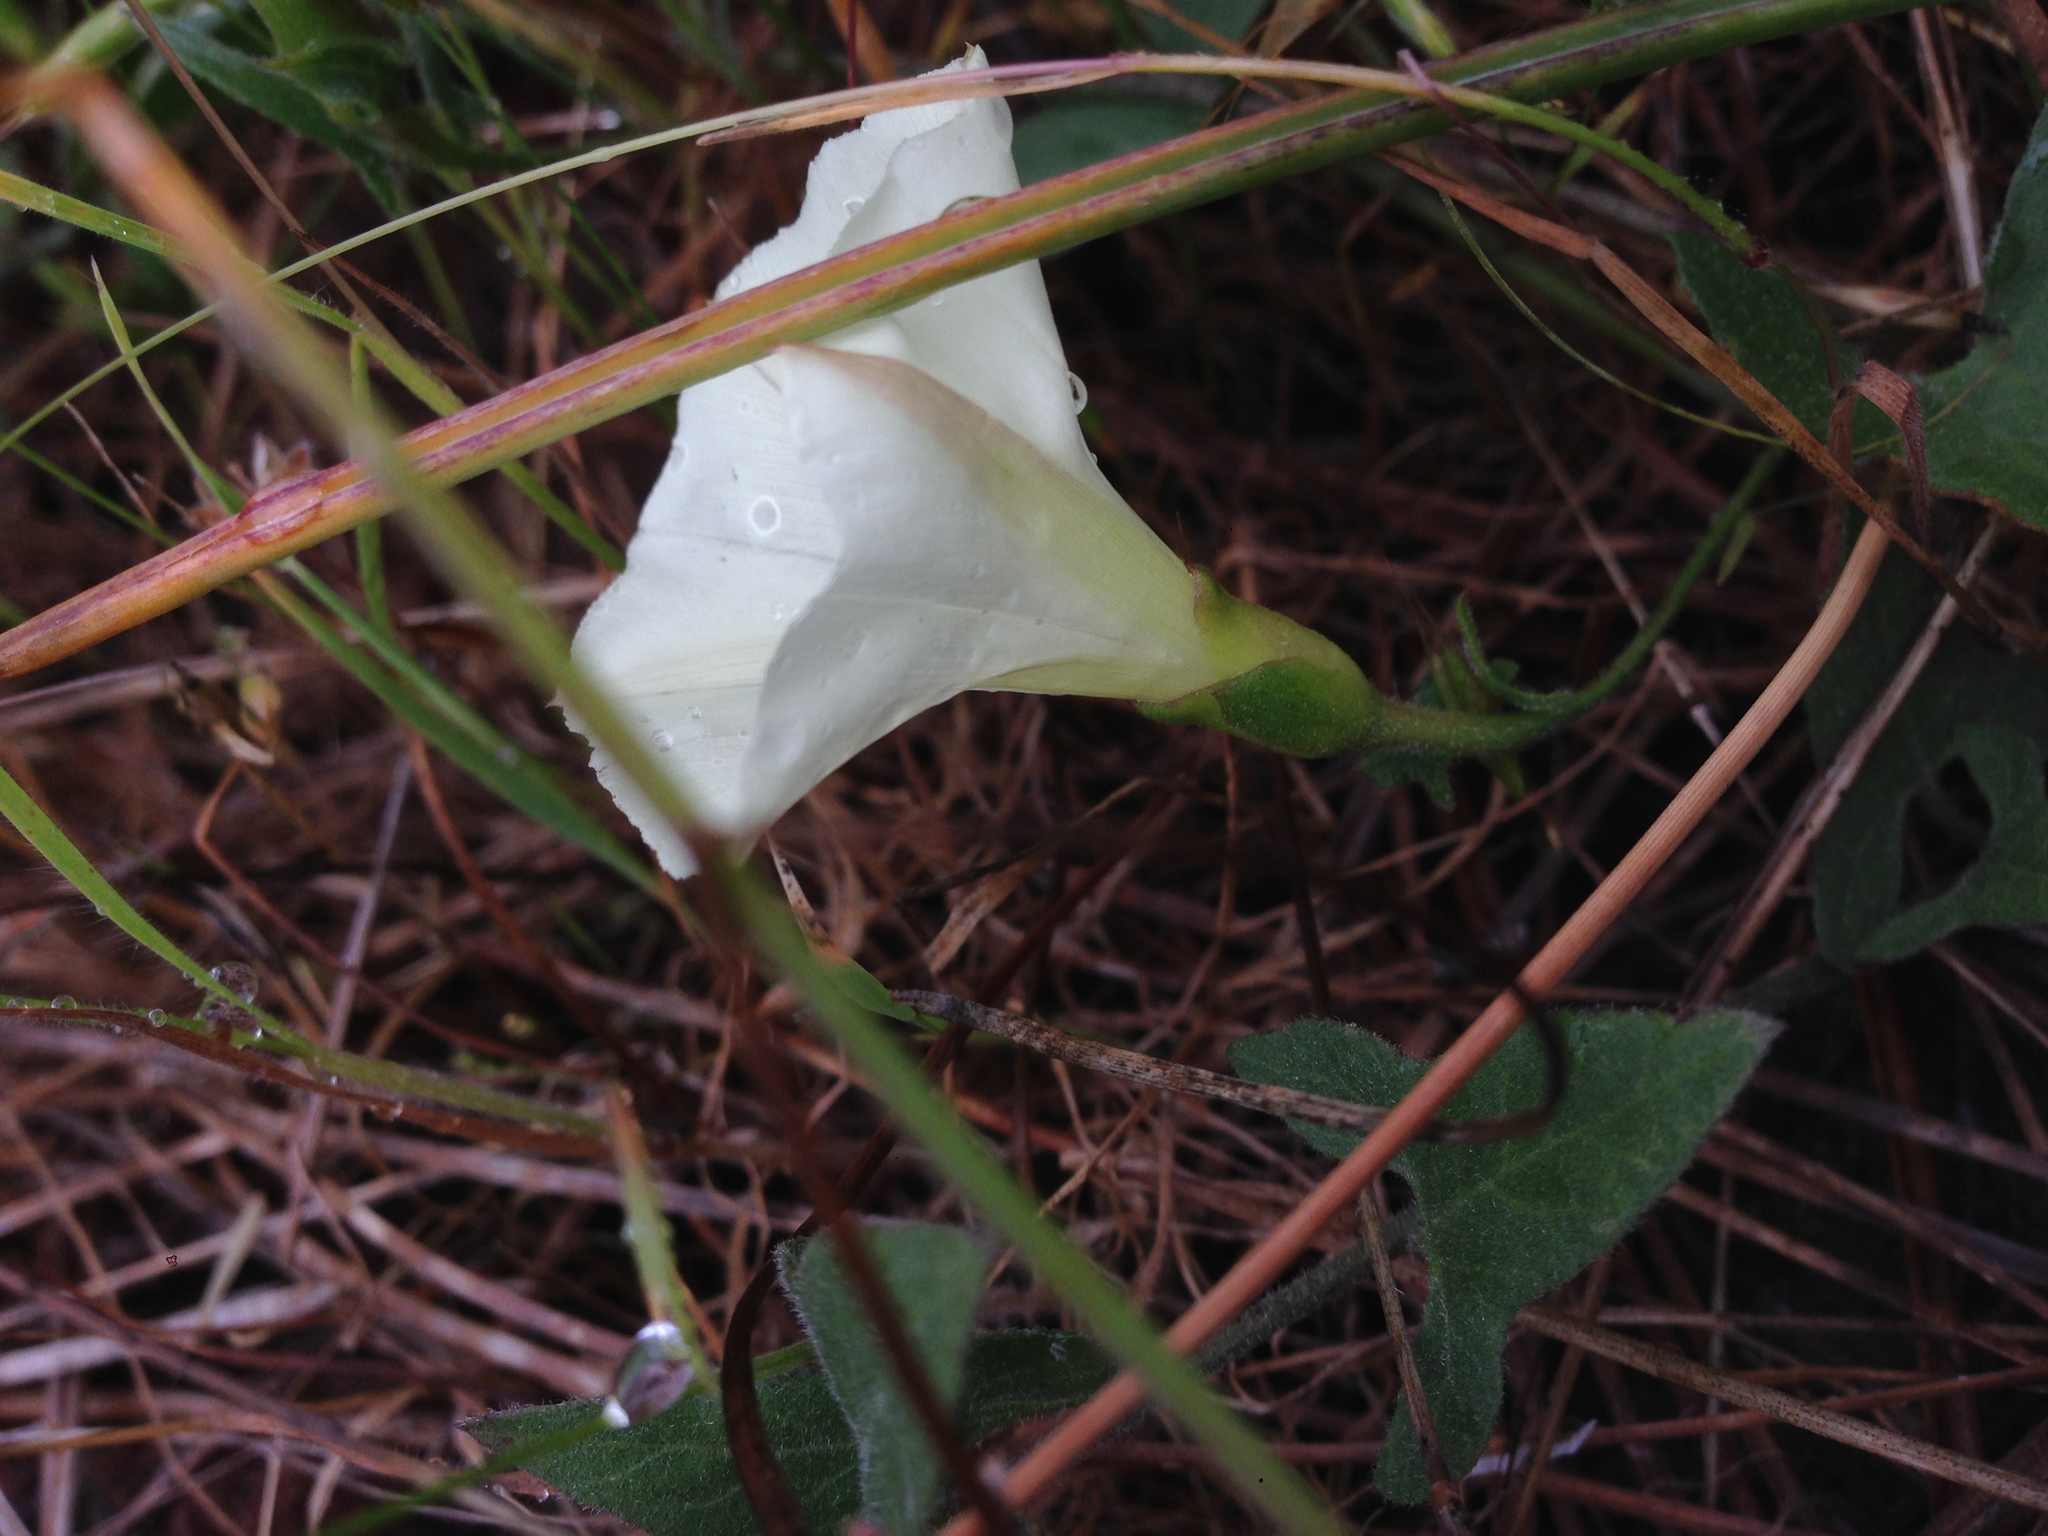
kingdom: Plantae
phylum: Tracheophyta
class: Magnoliopsida
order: Solanales
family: Convolvulaceae
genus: Calystegia
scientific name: Calystegia occidentalis
